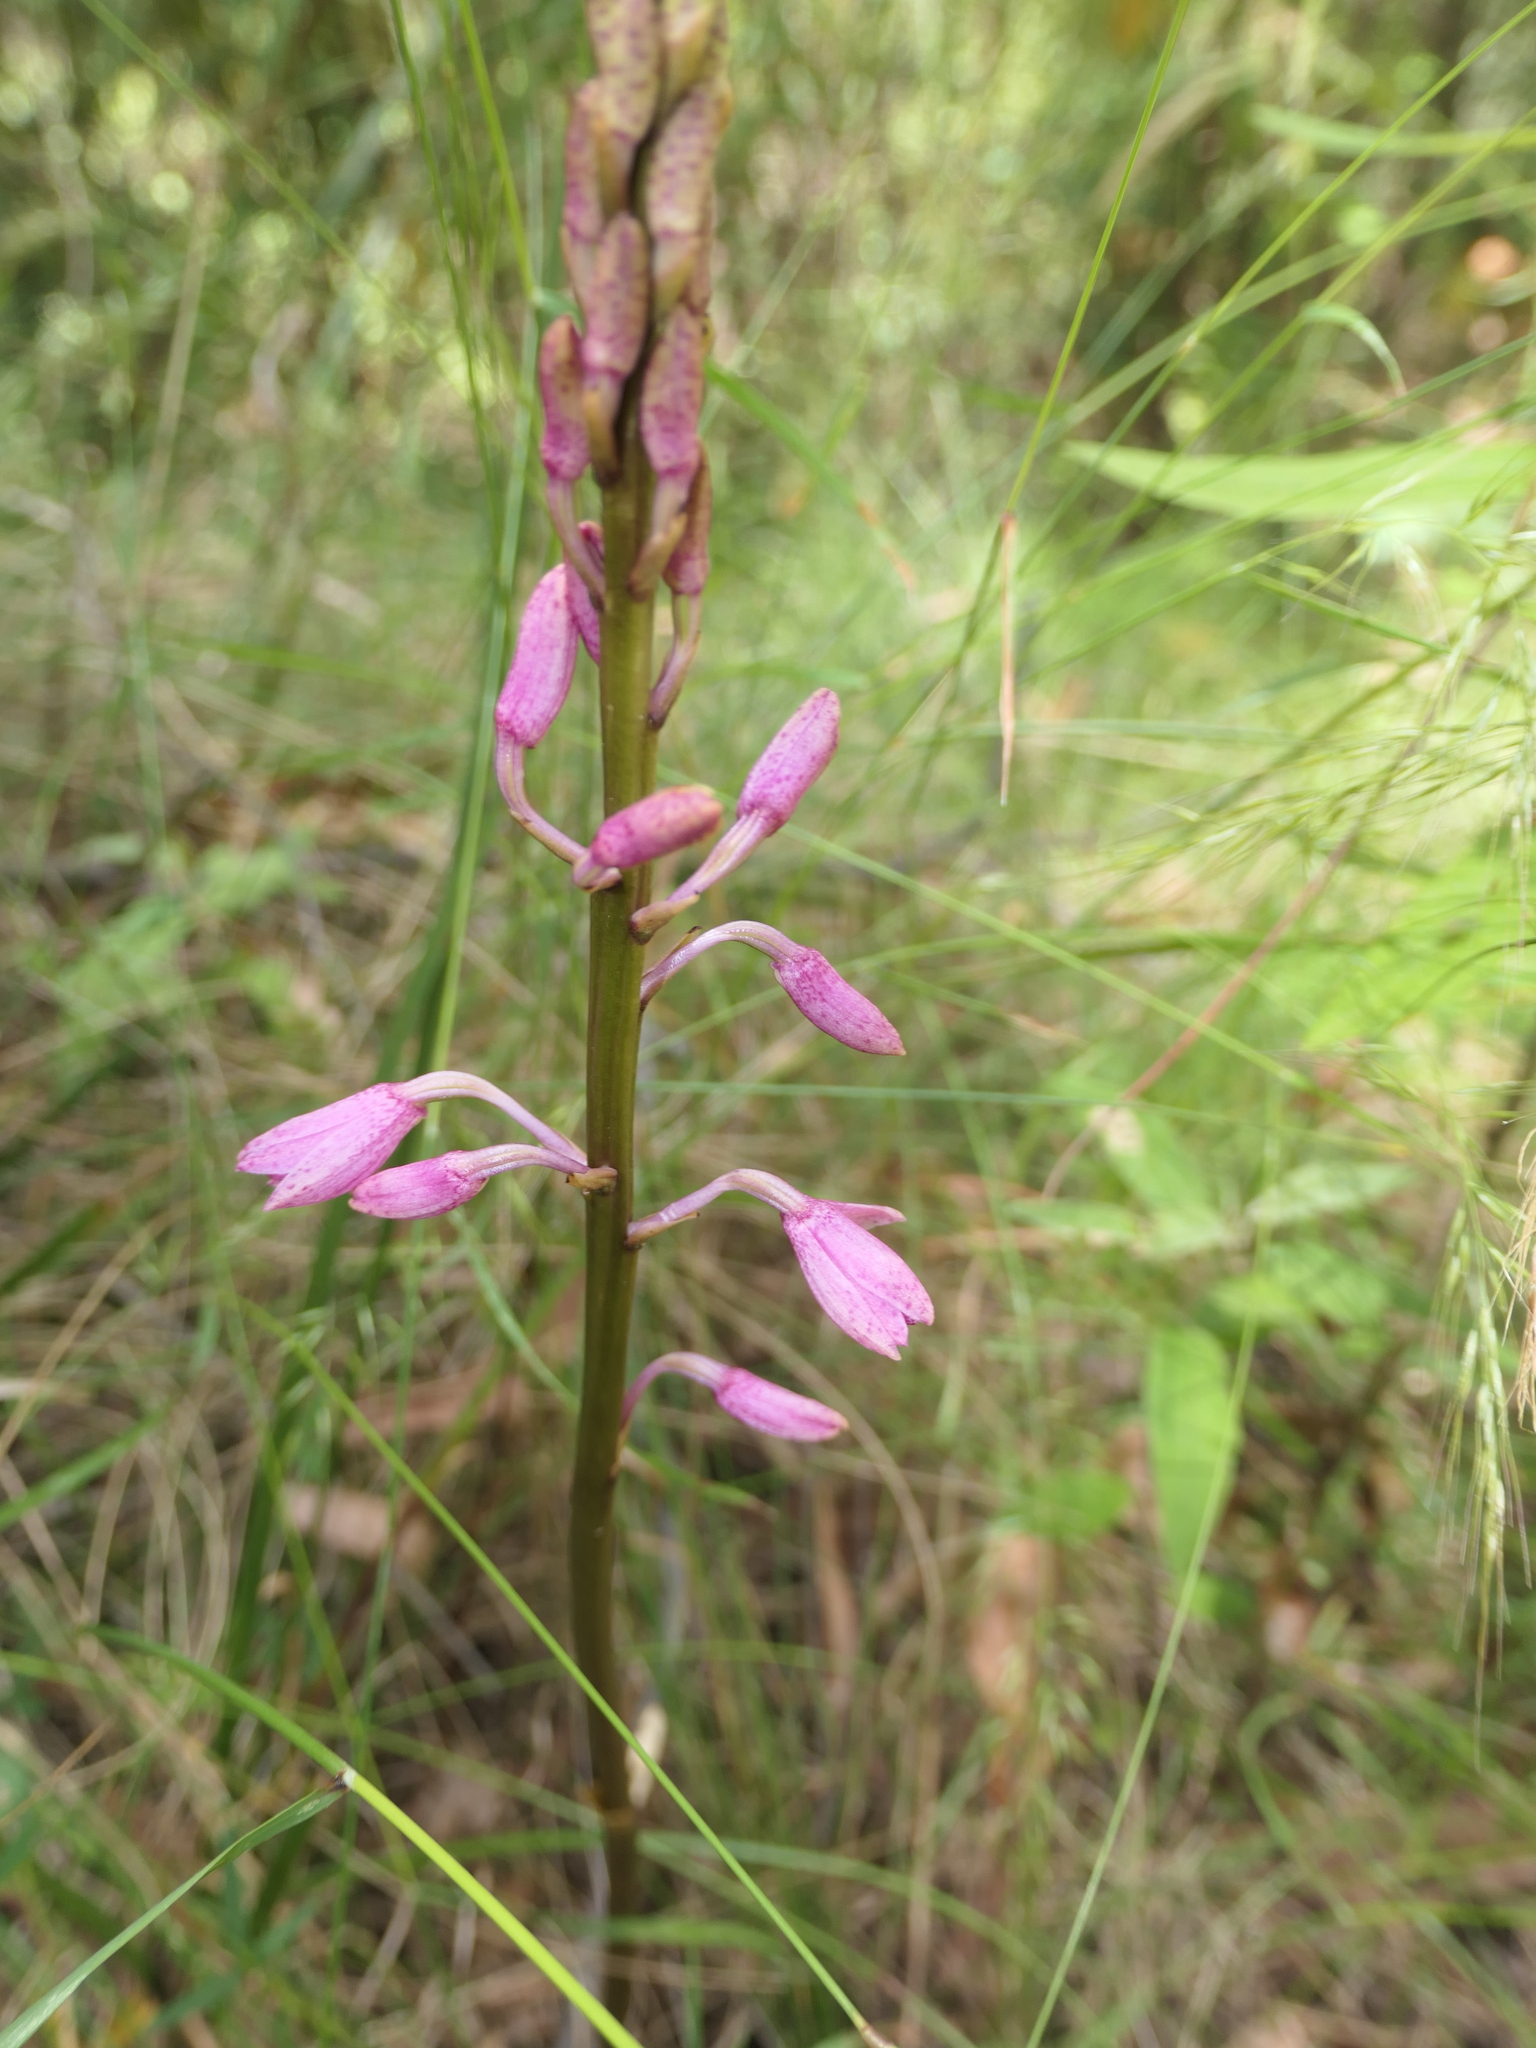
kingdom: Plantae
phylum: Tracheophyta
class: Liliopsida
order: Asparagales
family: Orchidaceae
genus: Dipodium
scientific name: Dipodium roseum
